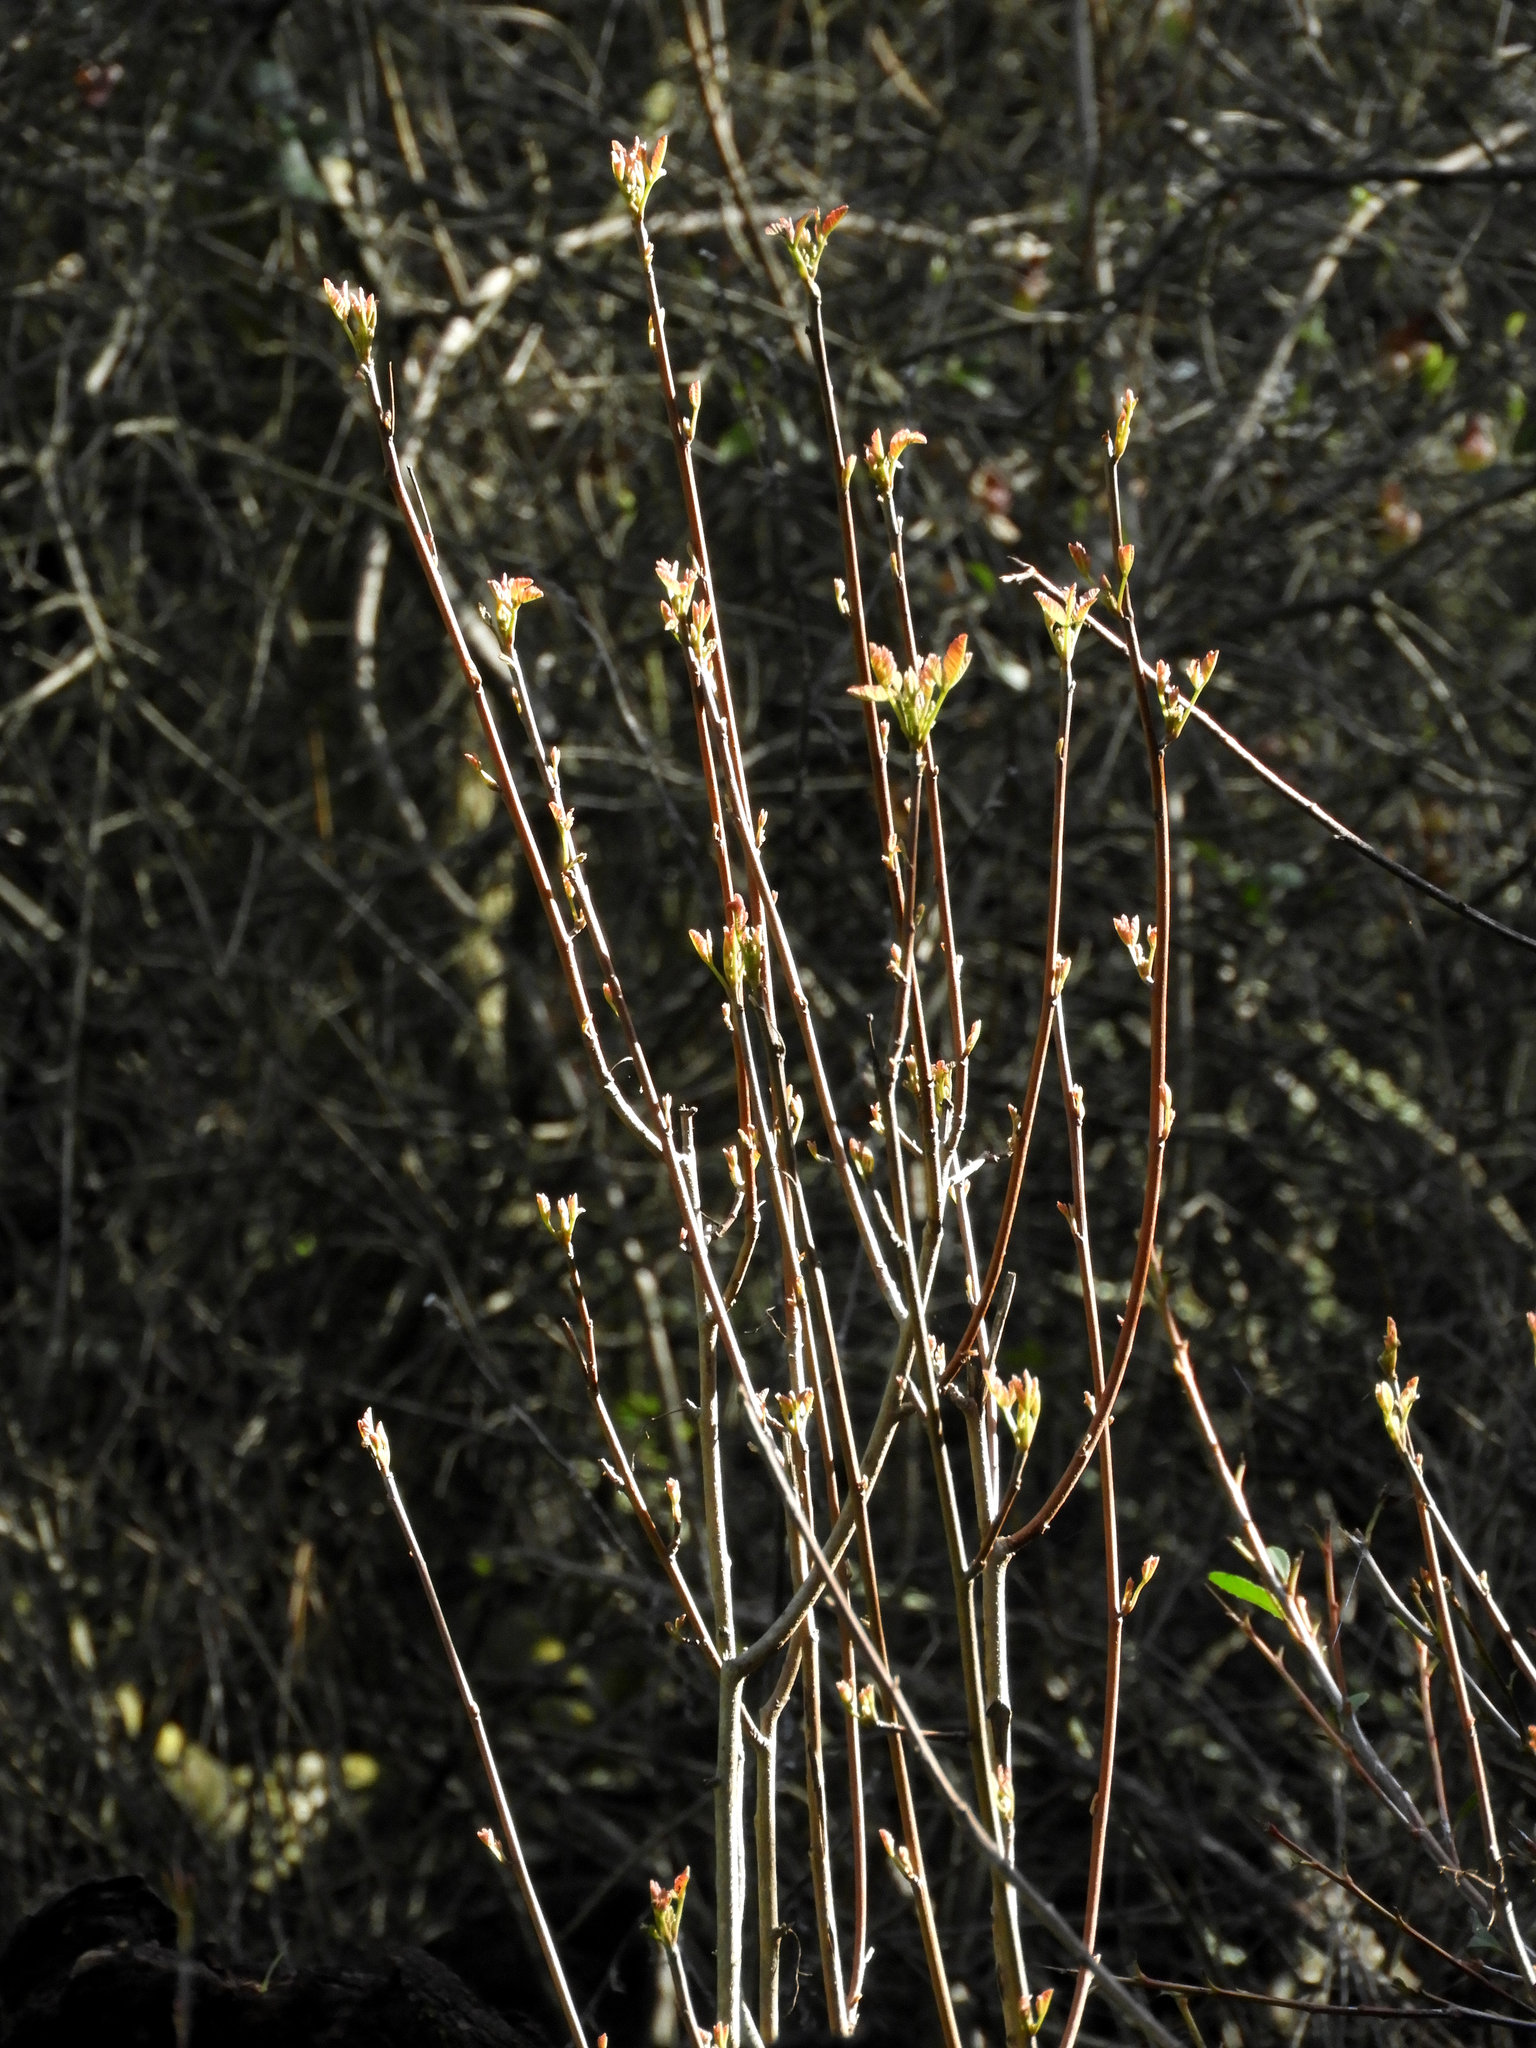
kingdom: Plantae
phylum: Tracheophyta
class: Magnoliopsida
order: Sapindales
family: Anacardiaceae
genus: Toxicodendron
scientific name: Toxicodendron diversilobum
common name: Pacific poison-oak
